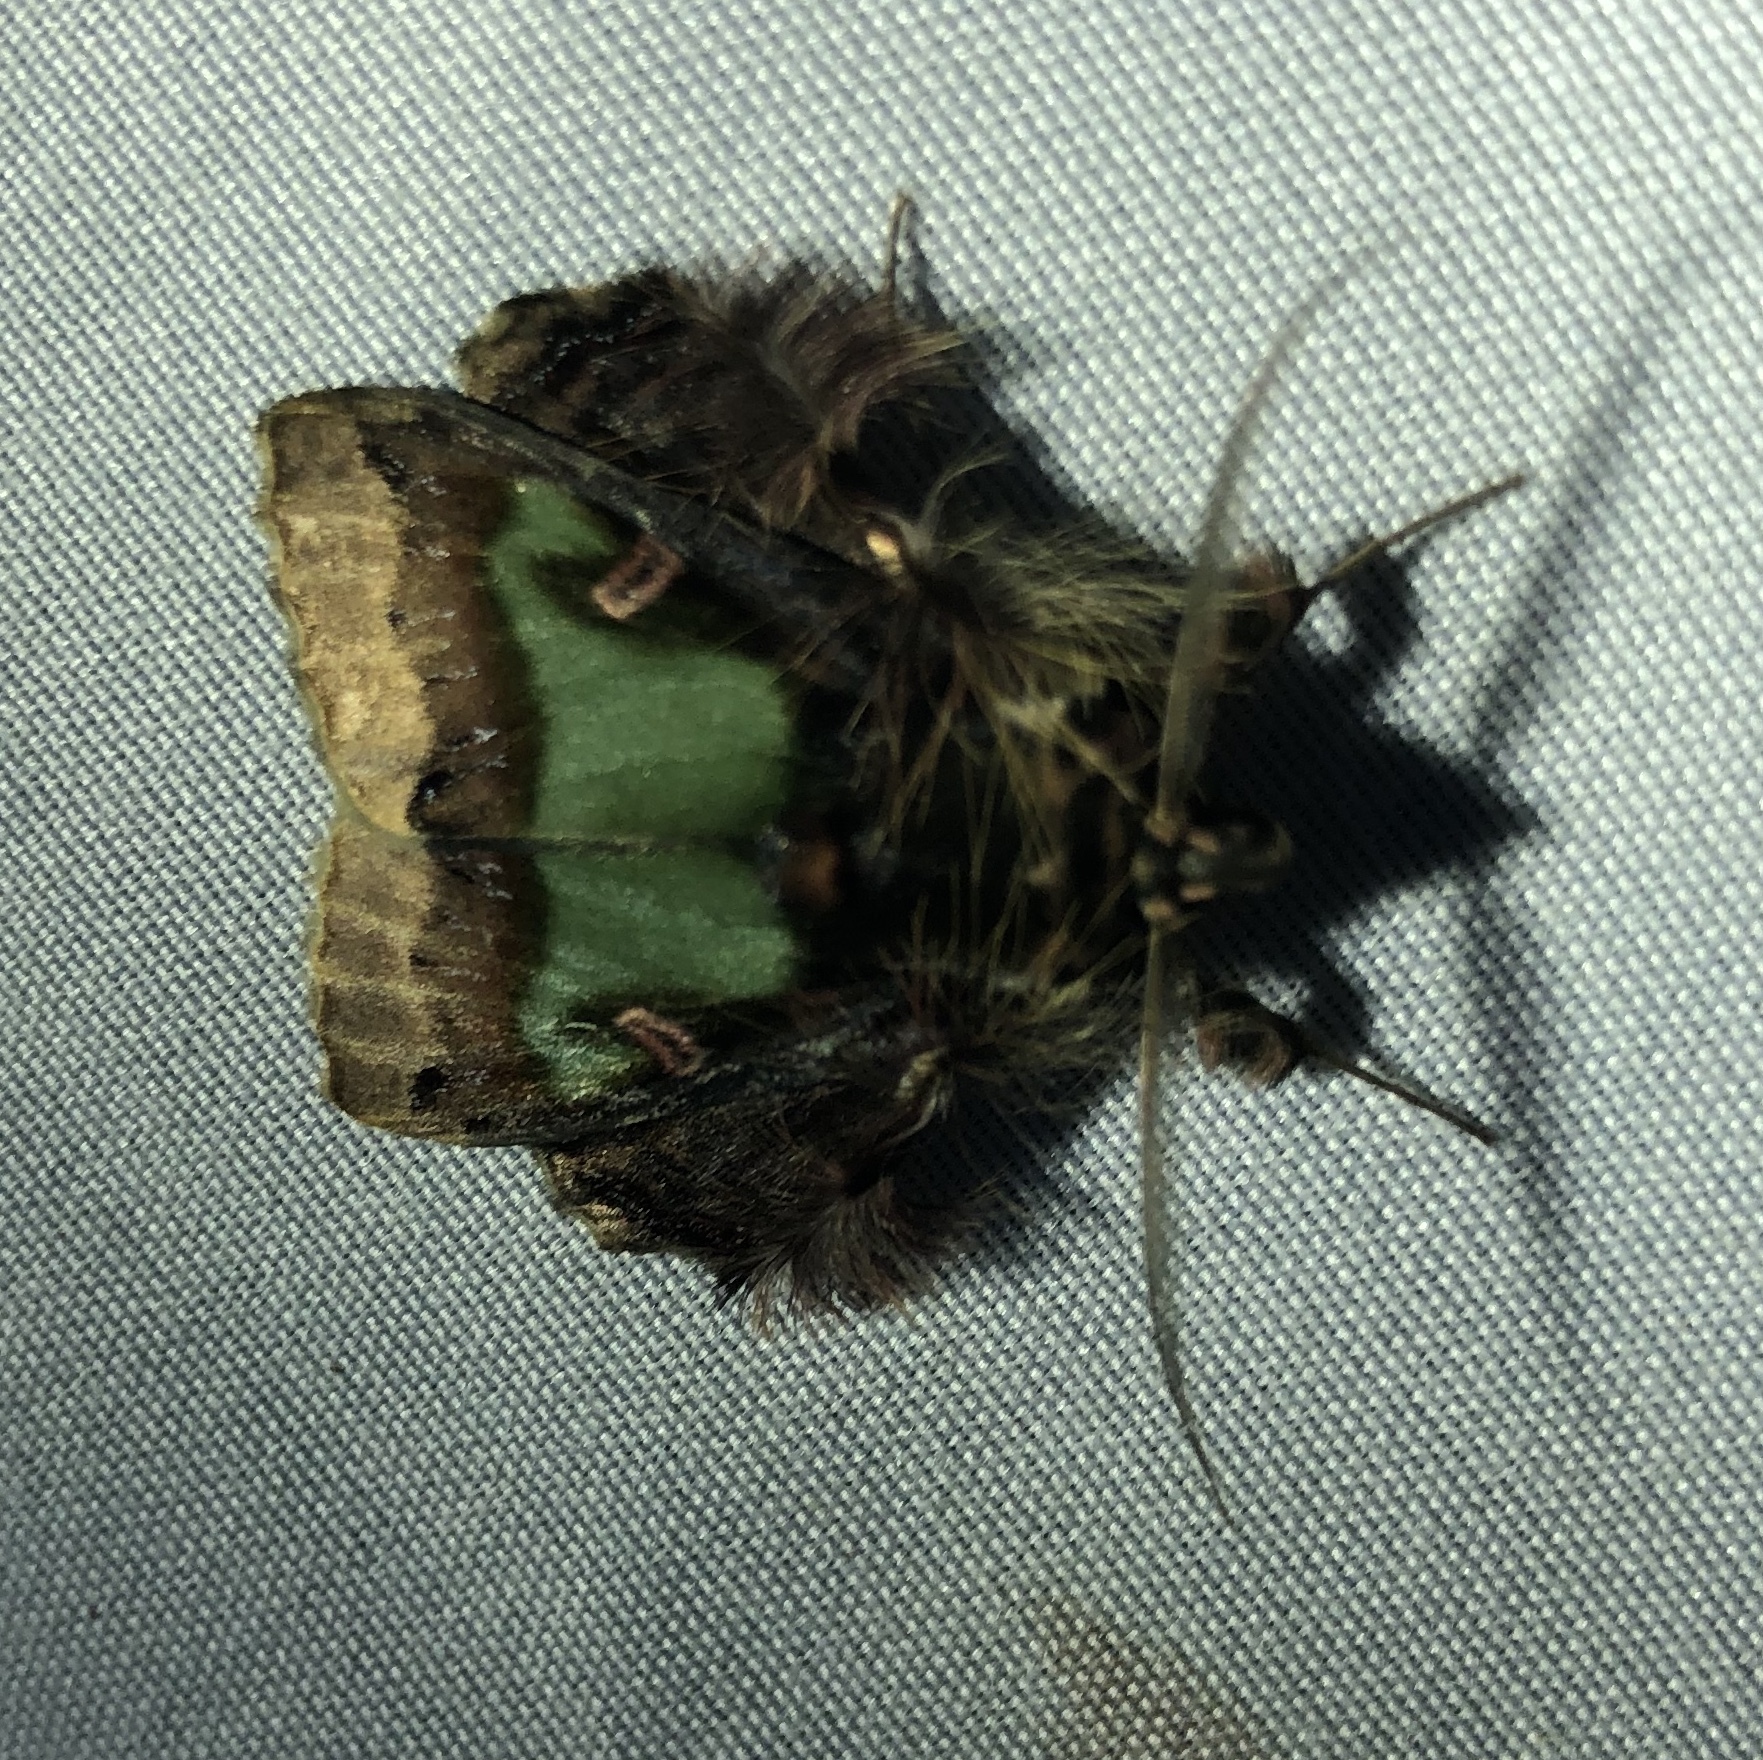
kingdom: Animalia
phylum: Arthropoda
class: Insecta
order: Lepidoptera
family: Erebidae
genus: Ceroctena
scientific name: Ceroctena amynta
